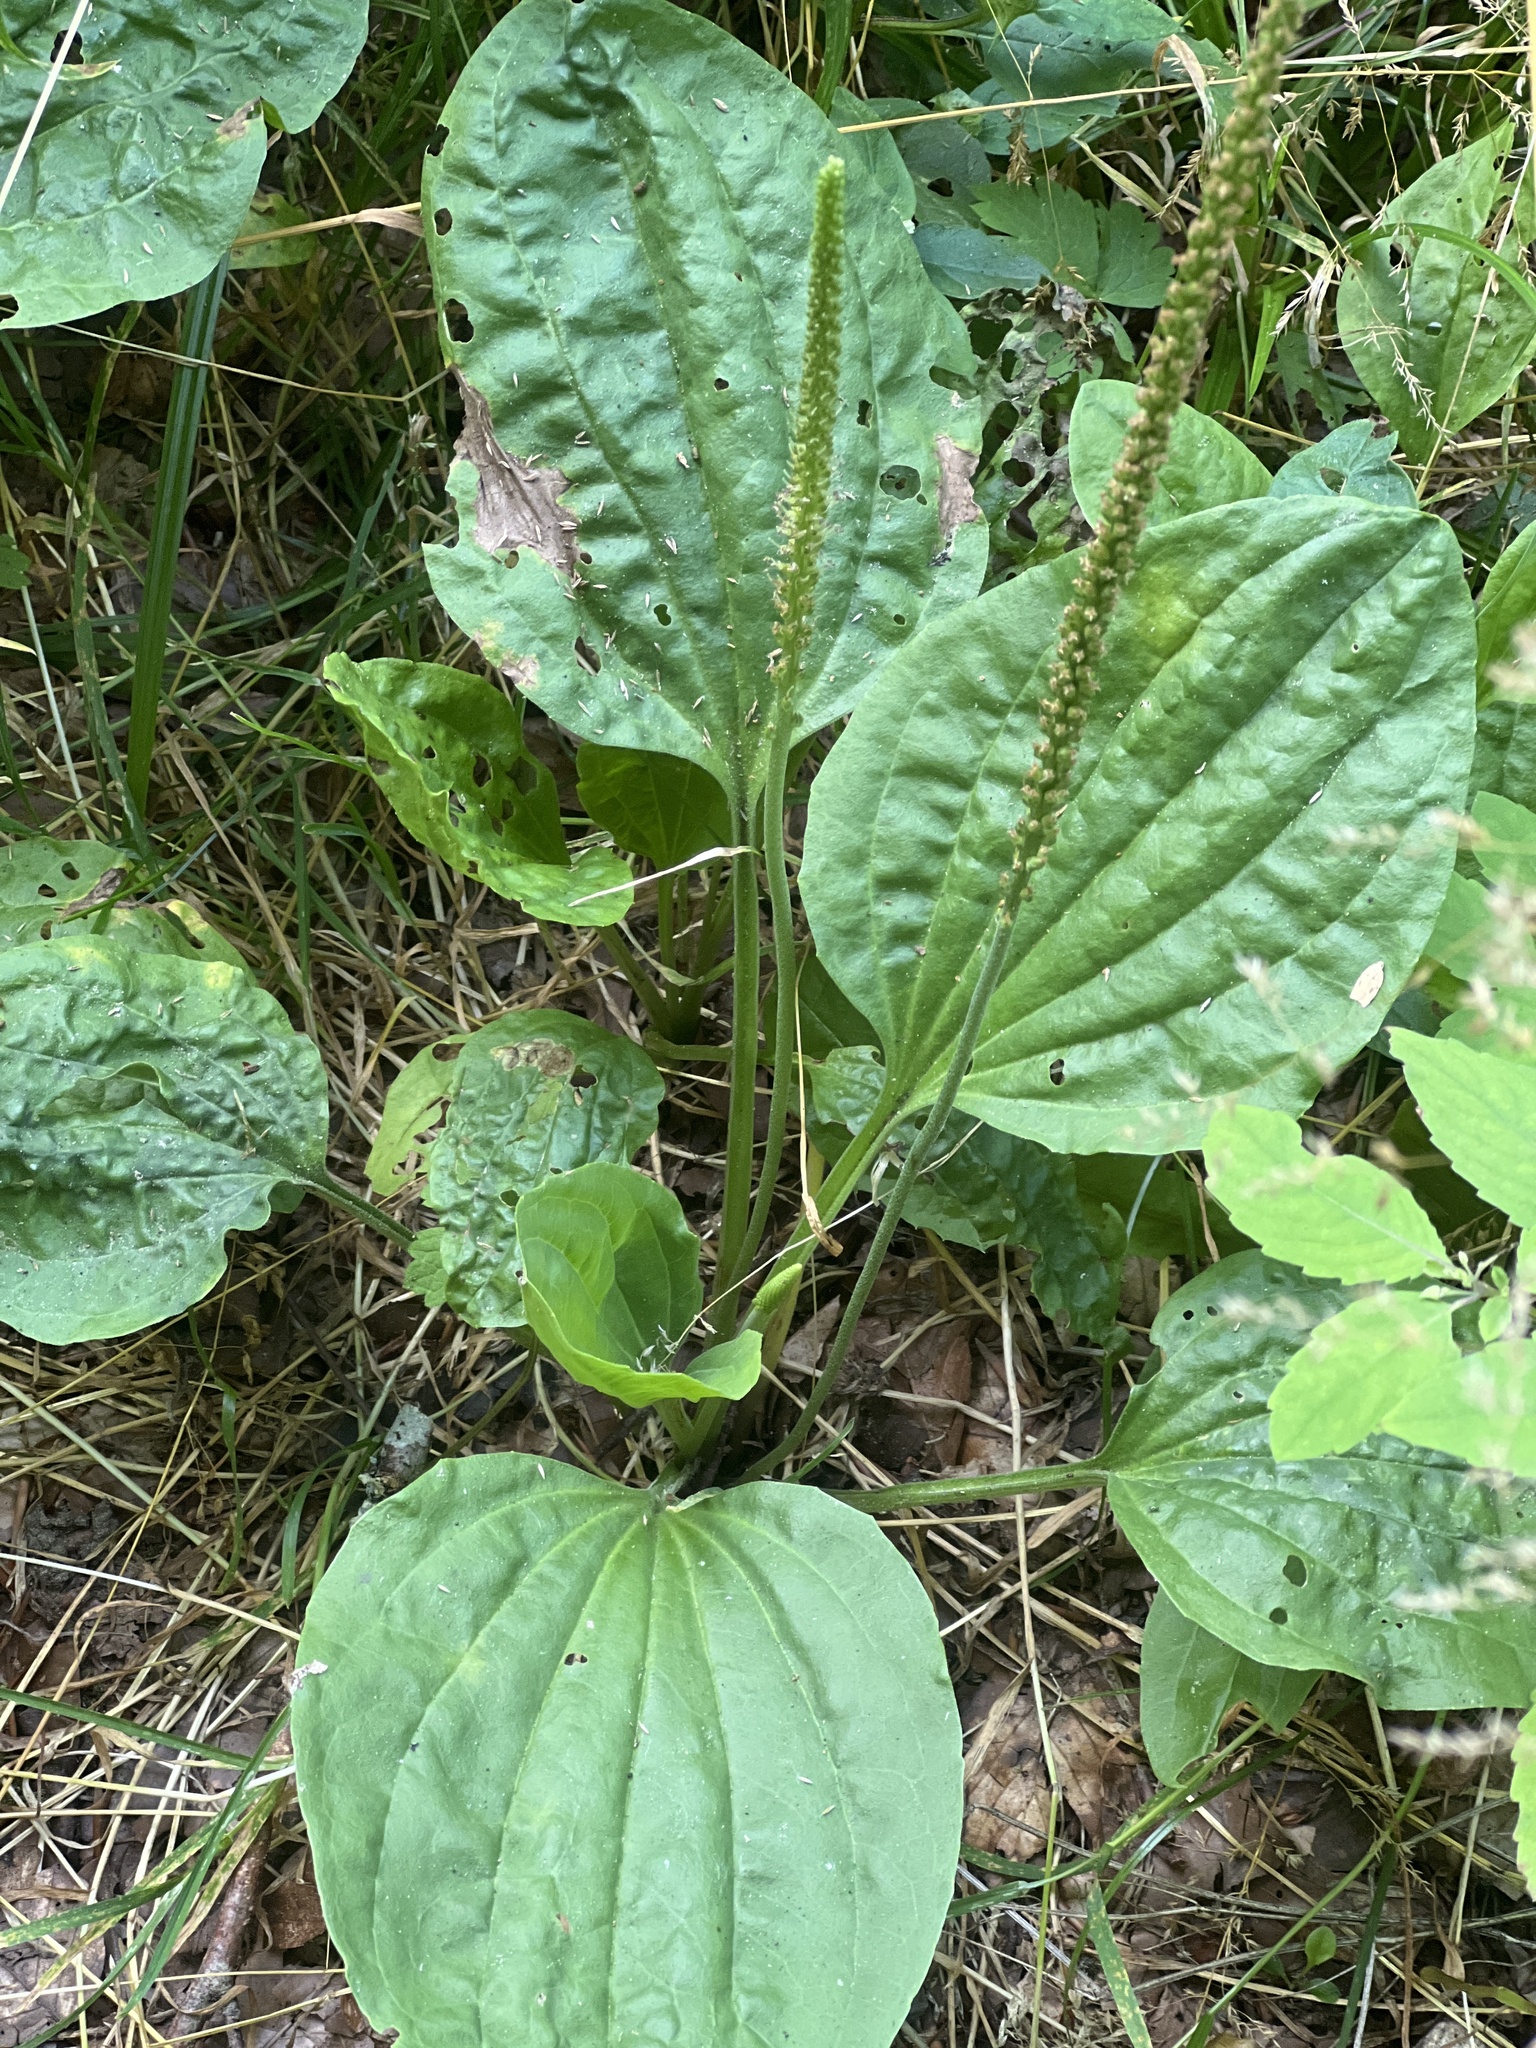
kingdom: Plantae
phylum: Tracheophyta
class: Magnoliopsida
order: Lamiales
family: Plantaginaceae
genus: Plantago
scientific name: Plantago major
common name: Common plantain
